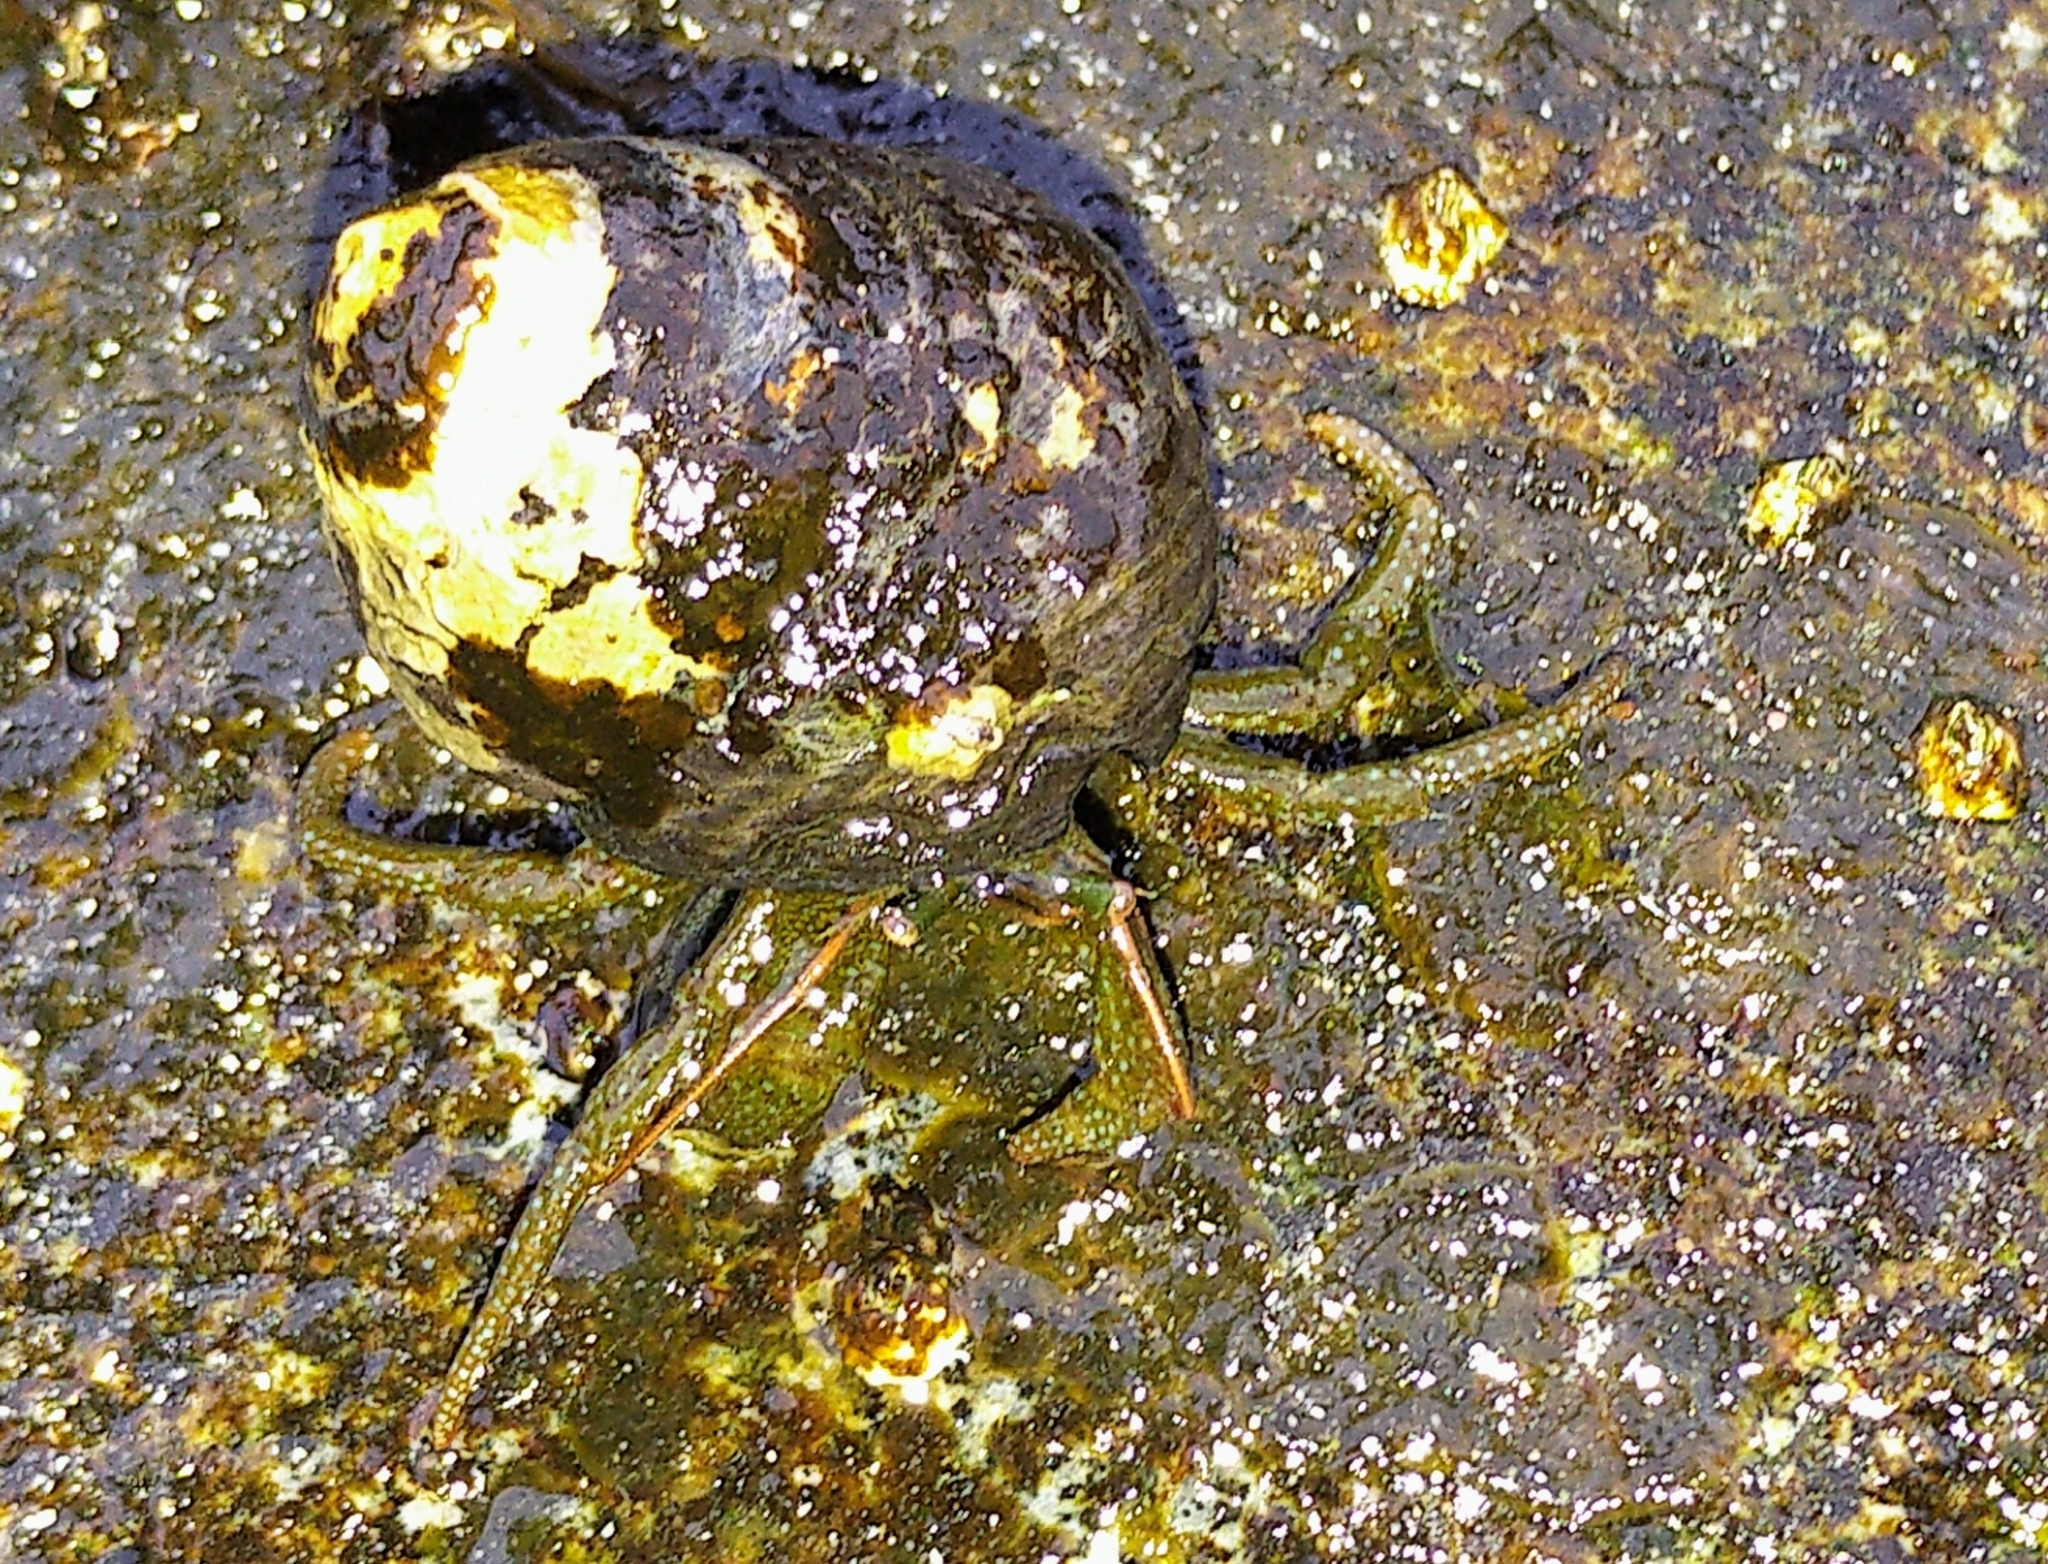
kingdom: Animalia
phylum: Arthropoda
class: Malacostraca
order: Decapoda
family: Paguridae
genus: Pagurus
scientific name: Pagurus granosimanus
